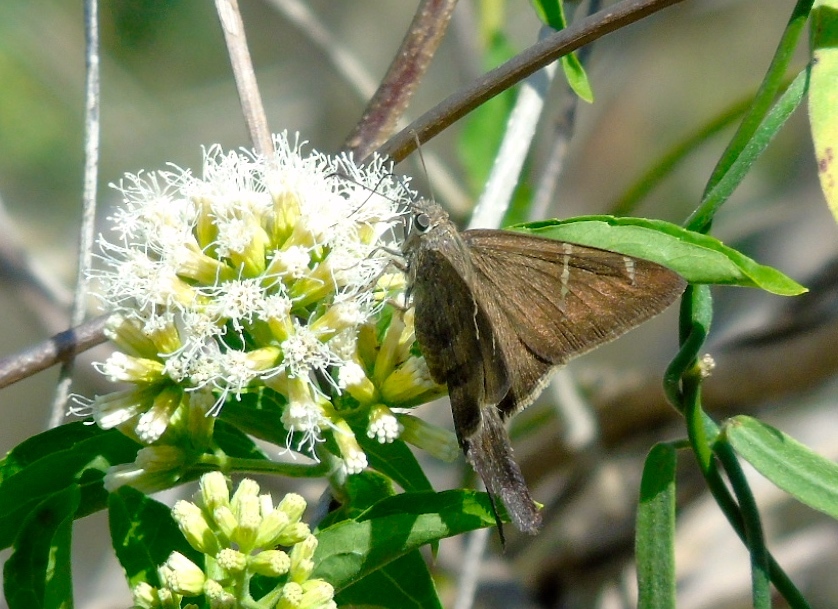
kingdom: Animalia
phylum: Arthropoda
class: Insecta
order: Lepidoptera
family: Hesperiidae
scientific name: Hesperiidae
